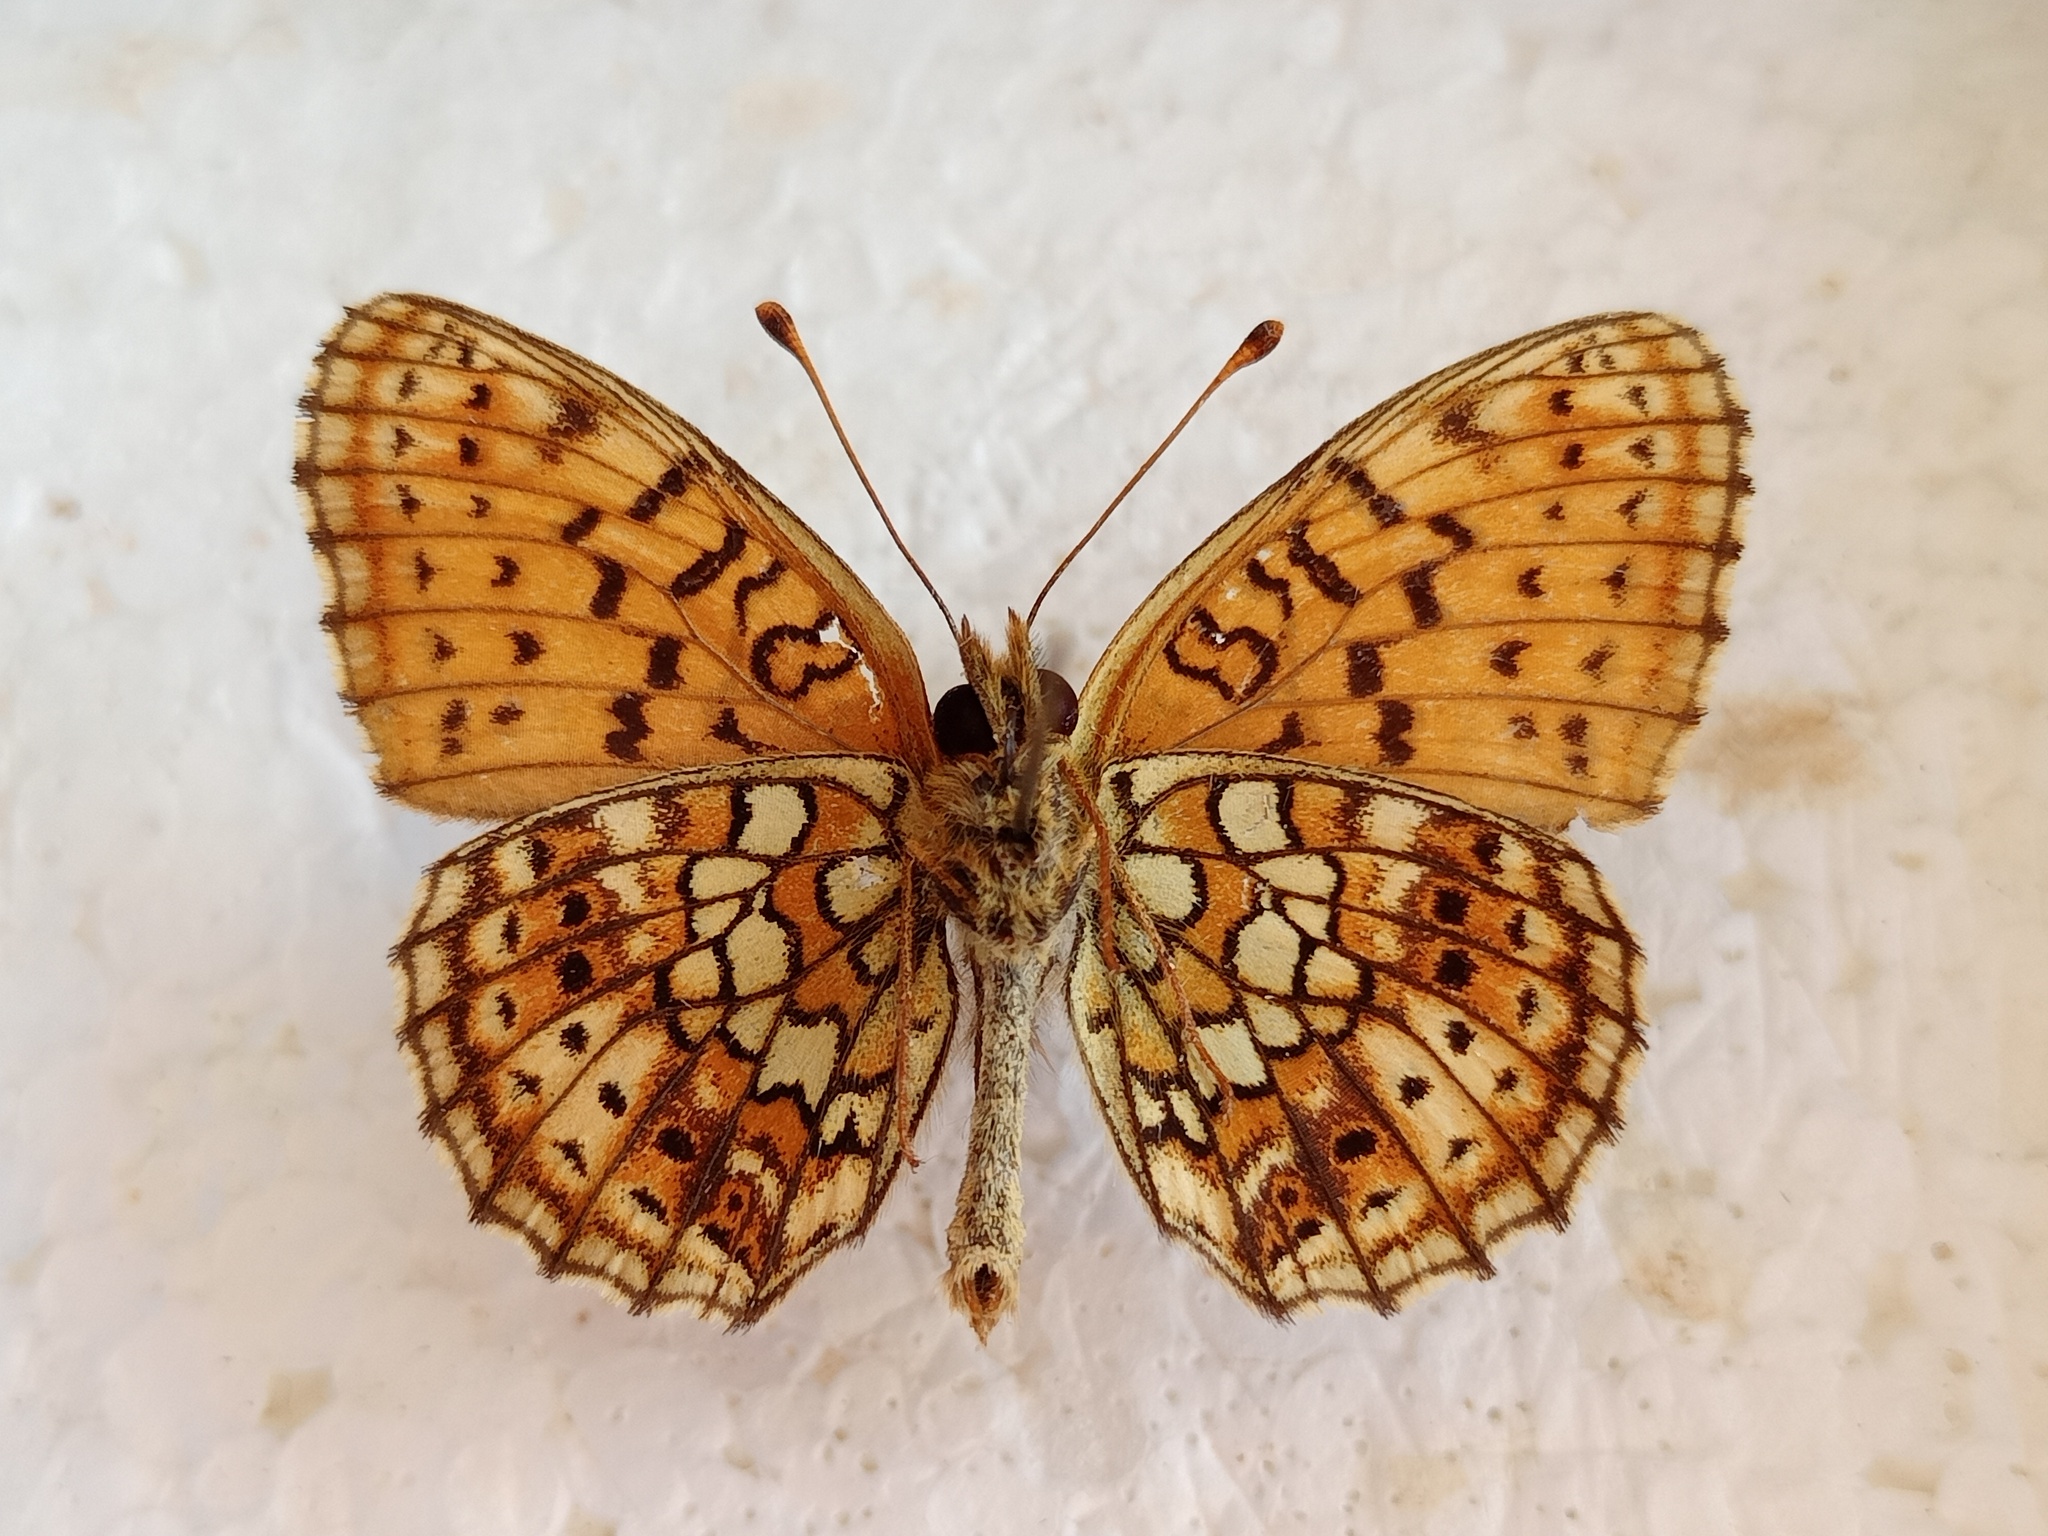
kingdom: Animalia
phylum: Arthropoda
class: Insecta
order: Lepidoptera
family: Nymphalidae
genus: Brenthis
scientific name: Brenthis hecate
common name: Twin-spot fritillary
